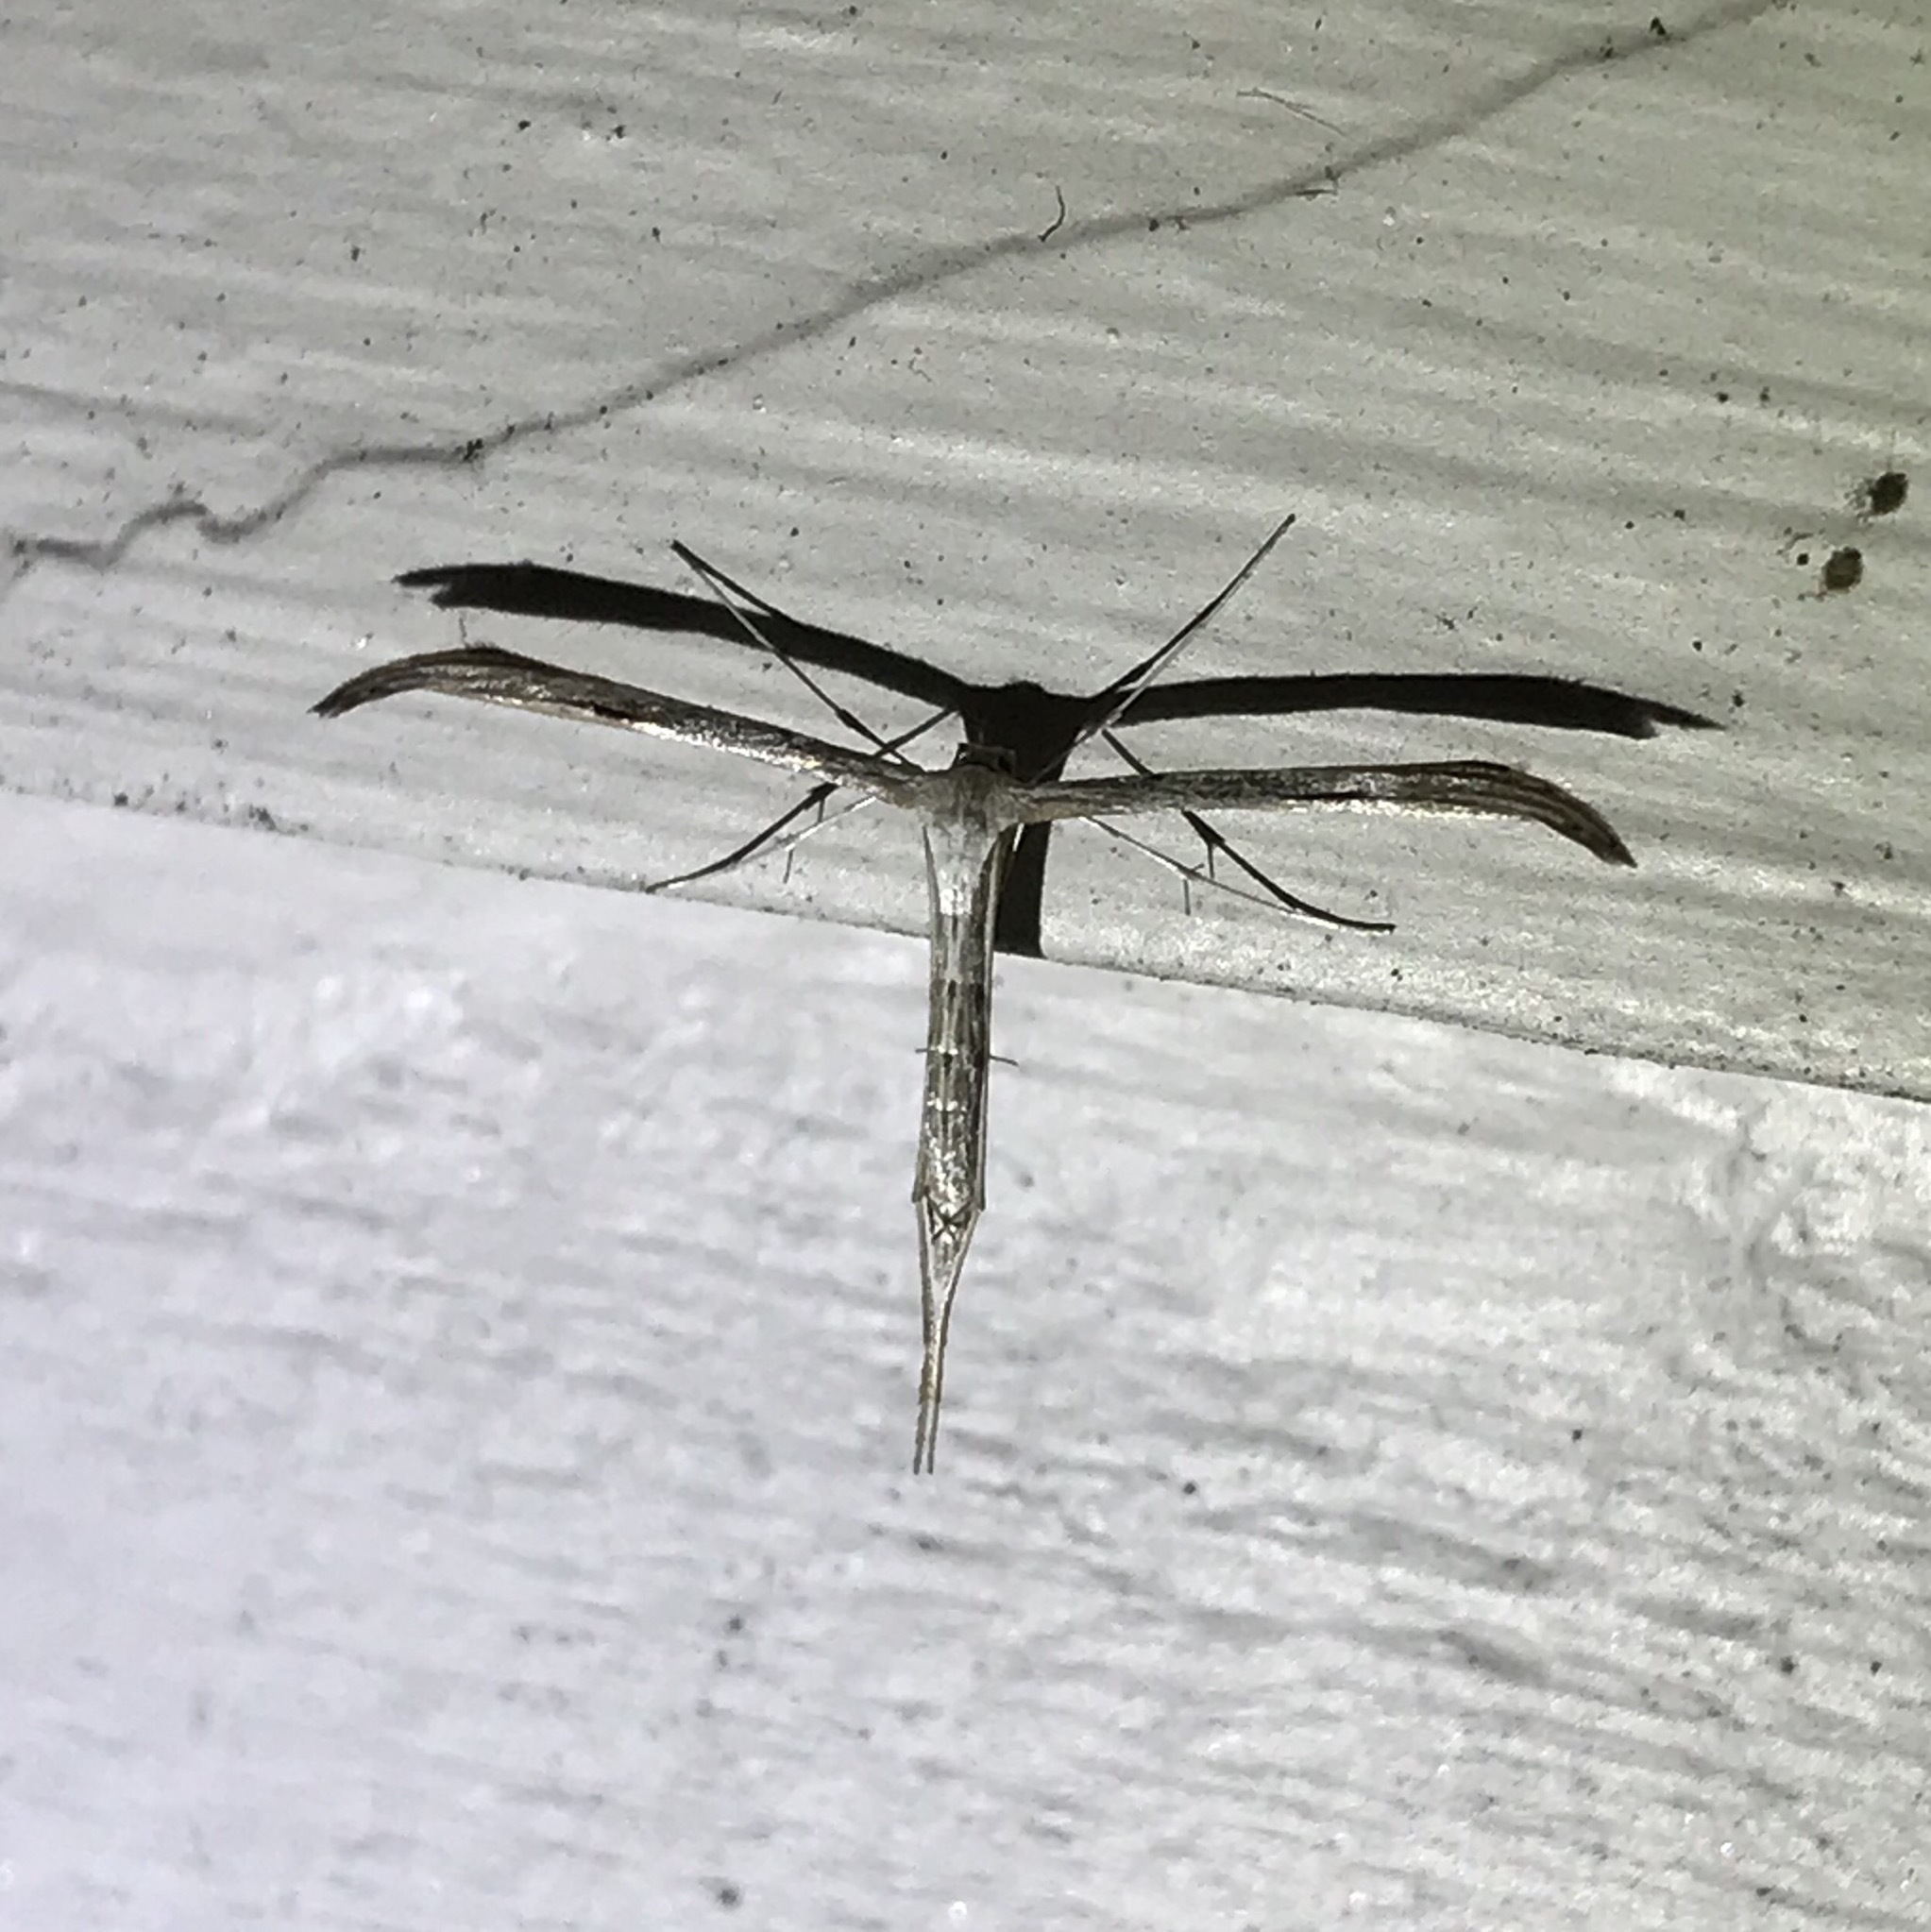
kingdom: Animalia
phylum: Arthropoda
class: Insecta
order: Lepidoptera
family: Pterophoridae
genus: Emmelina
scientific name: Emmelina monodactyla
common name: Common plume
